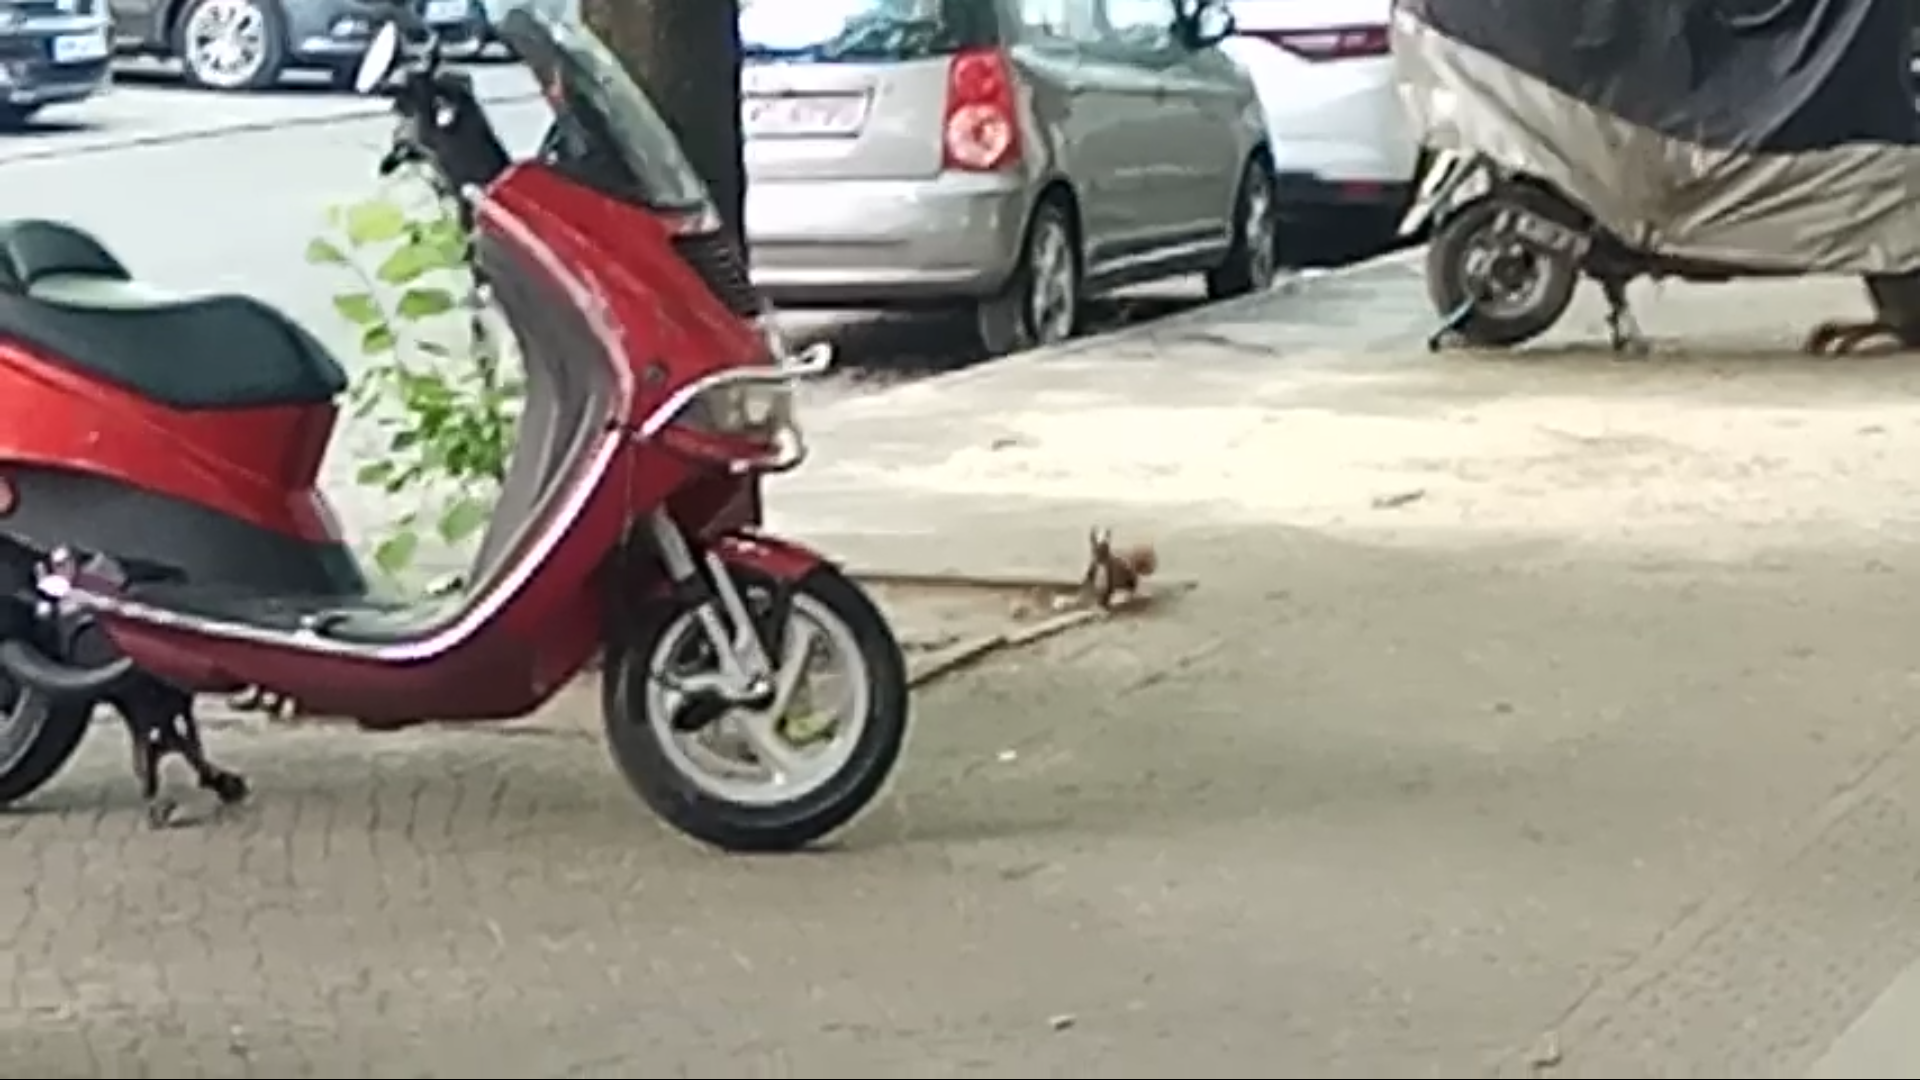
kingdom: Animalia
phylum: Chordata
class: Mammalia
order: Rodentia
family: Sciuridae
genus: Sciurus
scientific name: Sciurus vulgaris
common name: Eurasian red squirrel
